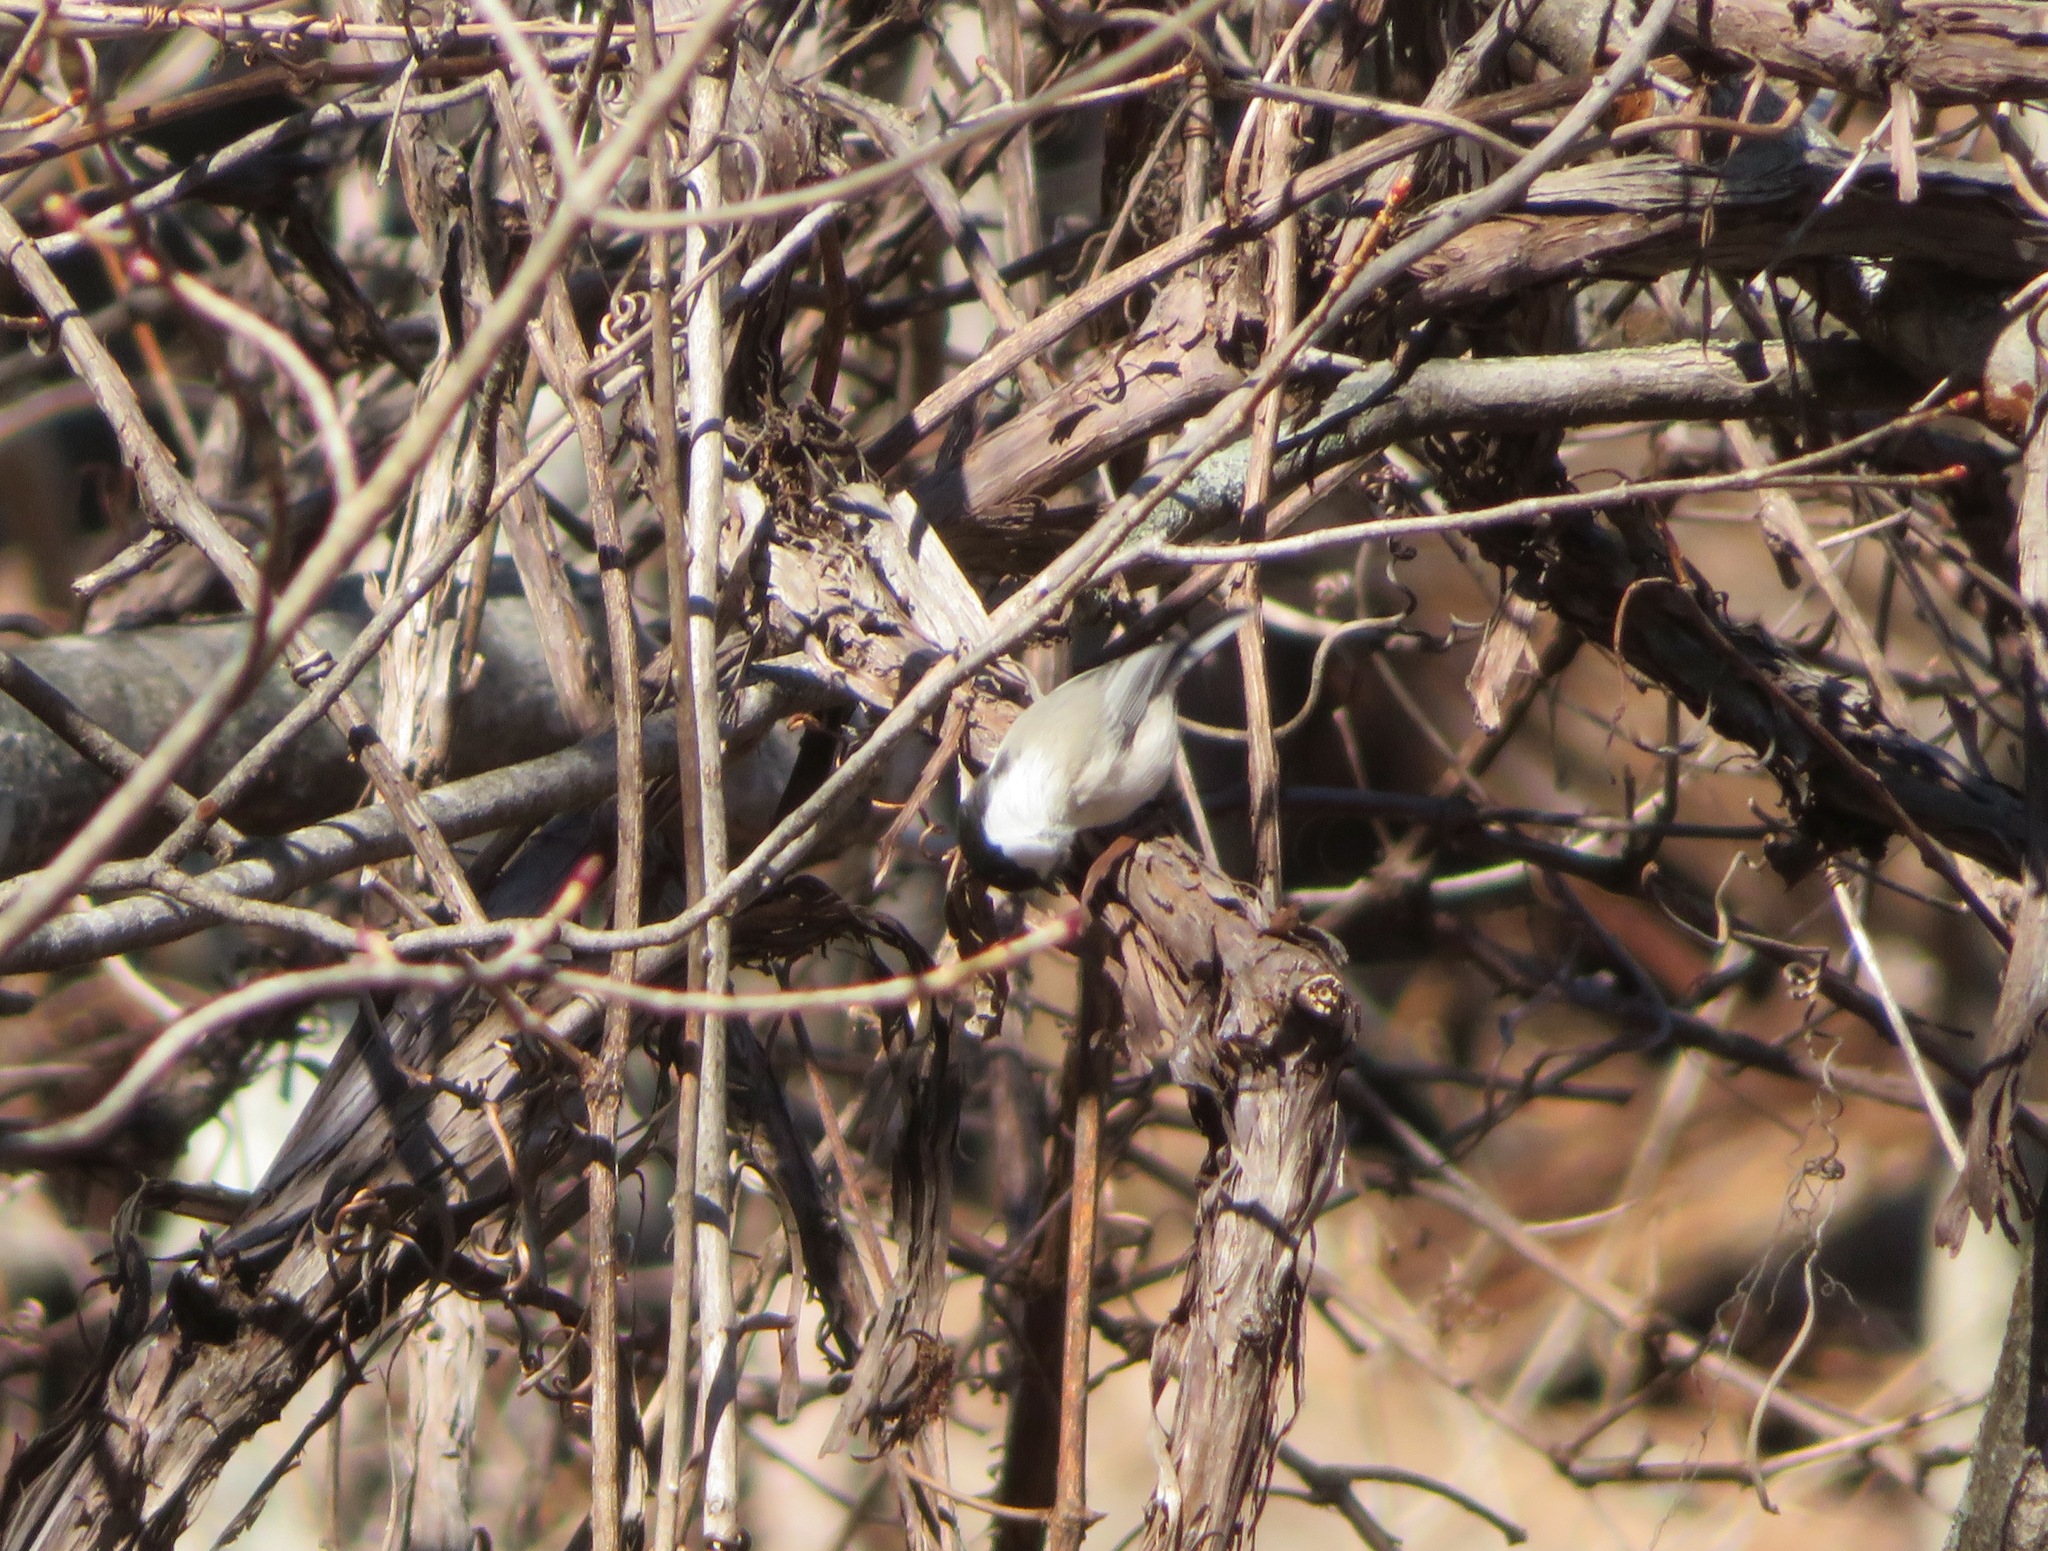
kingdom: Animalia
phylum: Chordata
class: Aves
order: Passeriformes
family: Paridae
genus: Poecile
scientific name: Poecile montanus
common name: Willow tit
